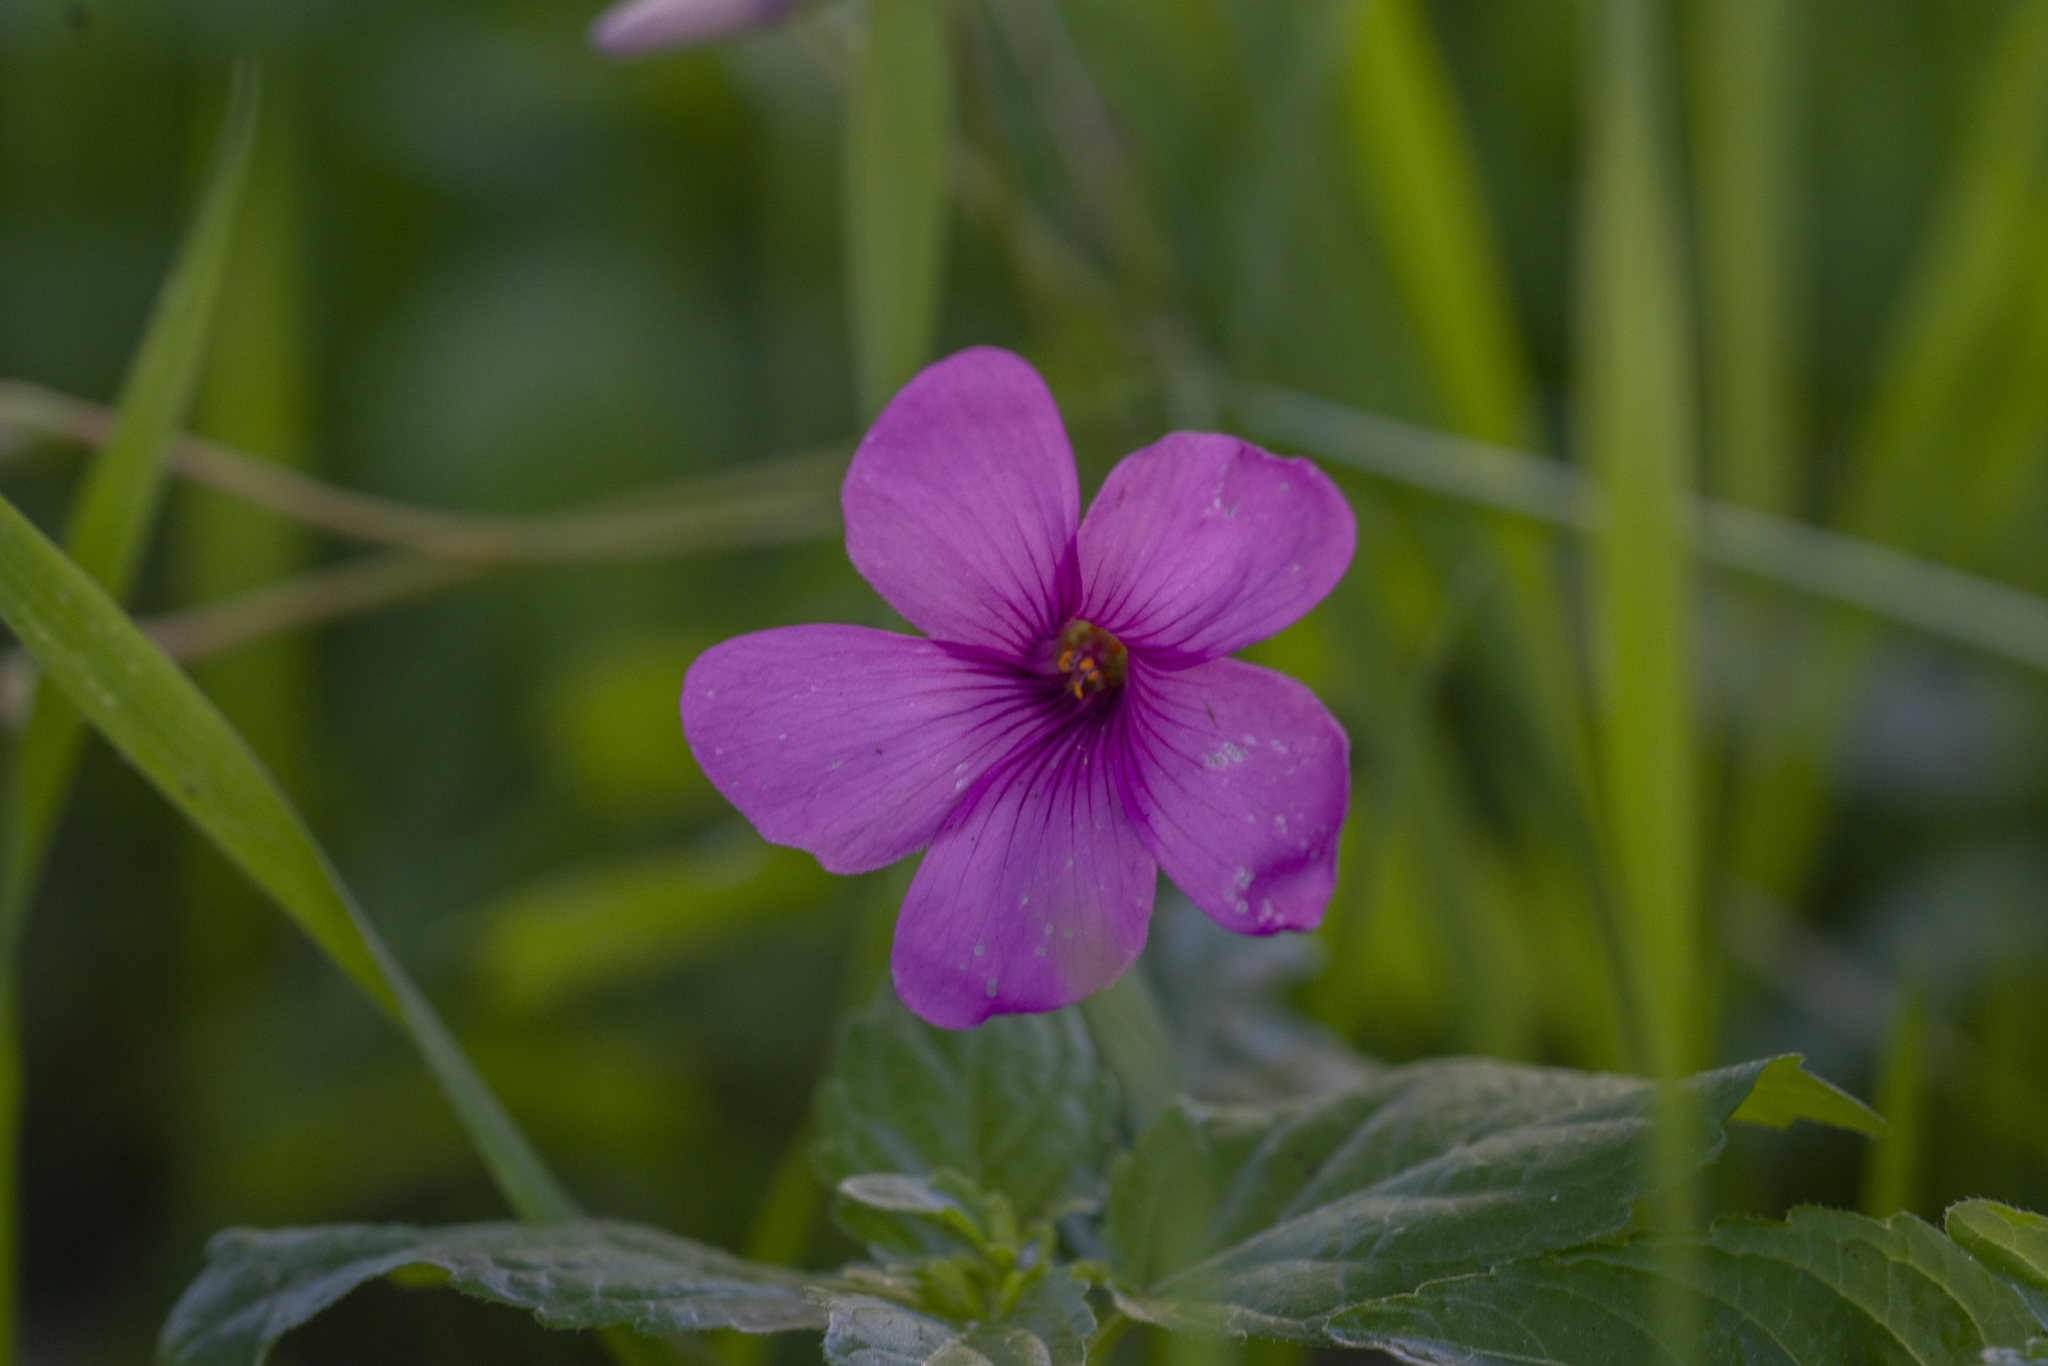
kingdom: Plantae
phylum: Tracheophyta
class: Magnoliopsida
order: Oxalidales
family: Oxalidaceae
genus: Oxalis
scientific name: Oxalis articulata
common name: Pink-sorrel
